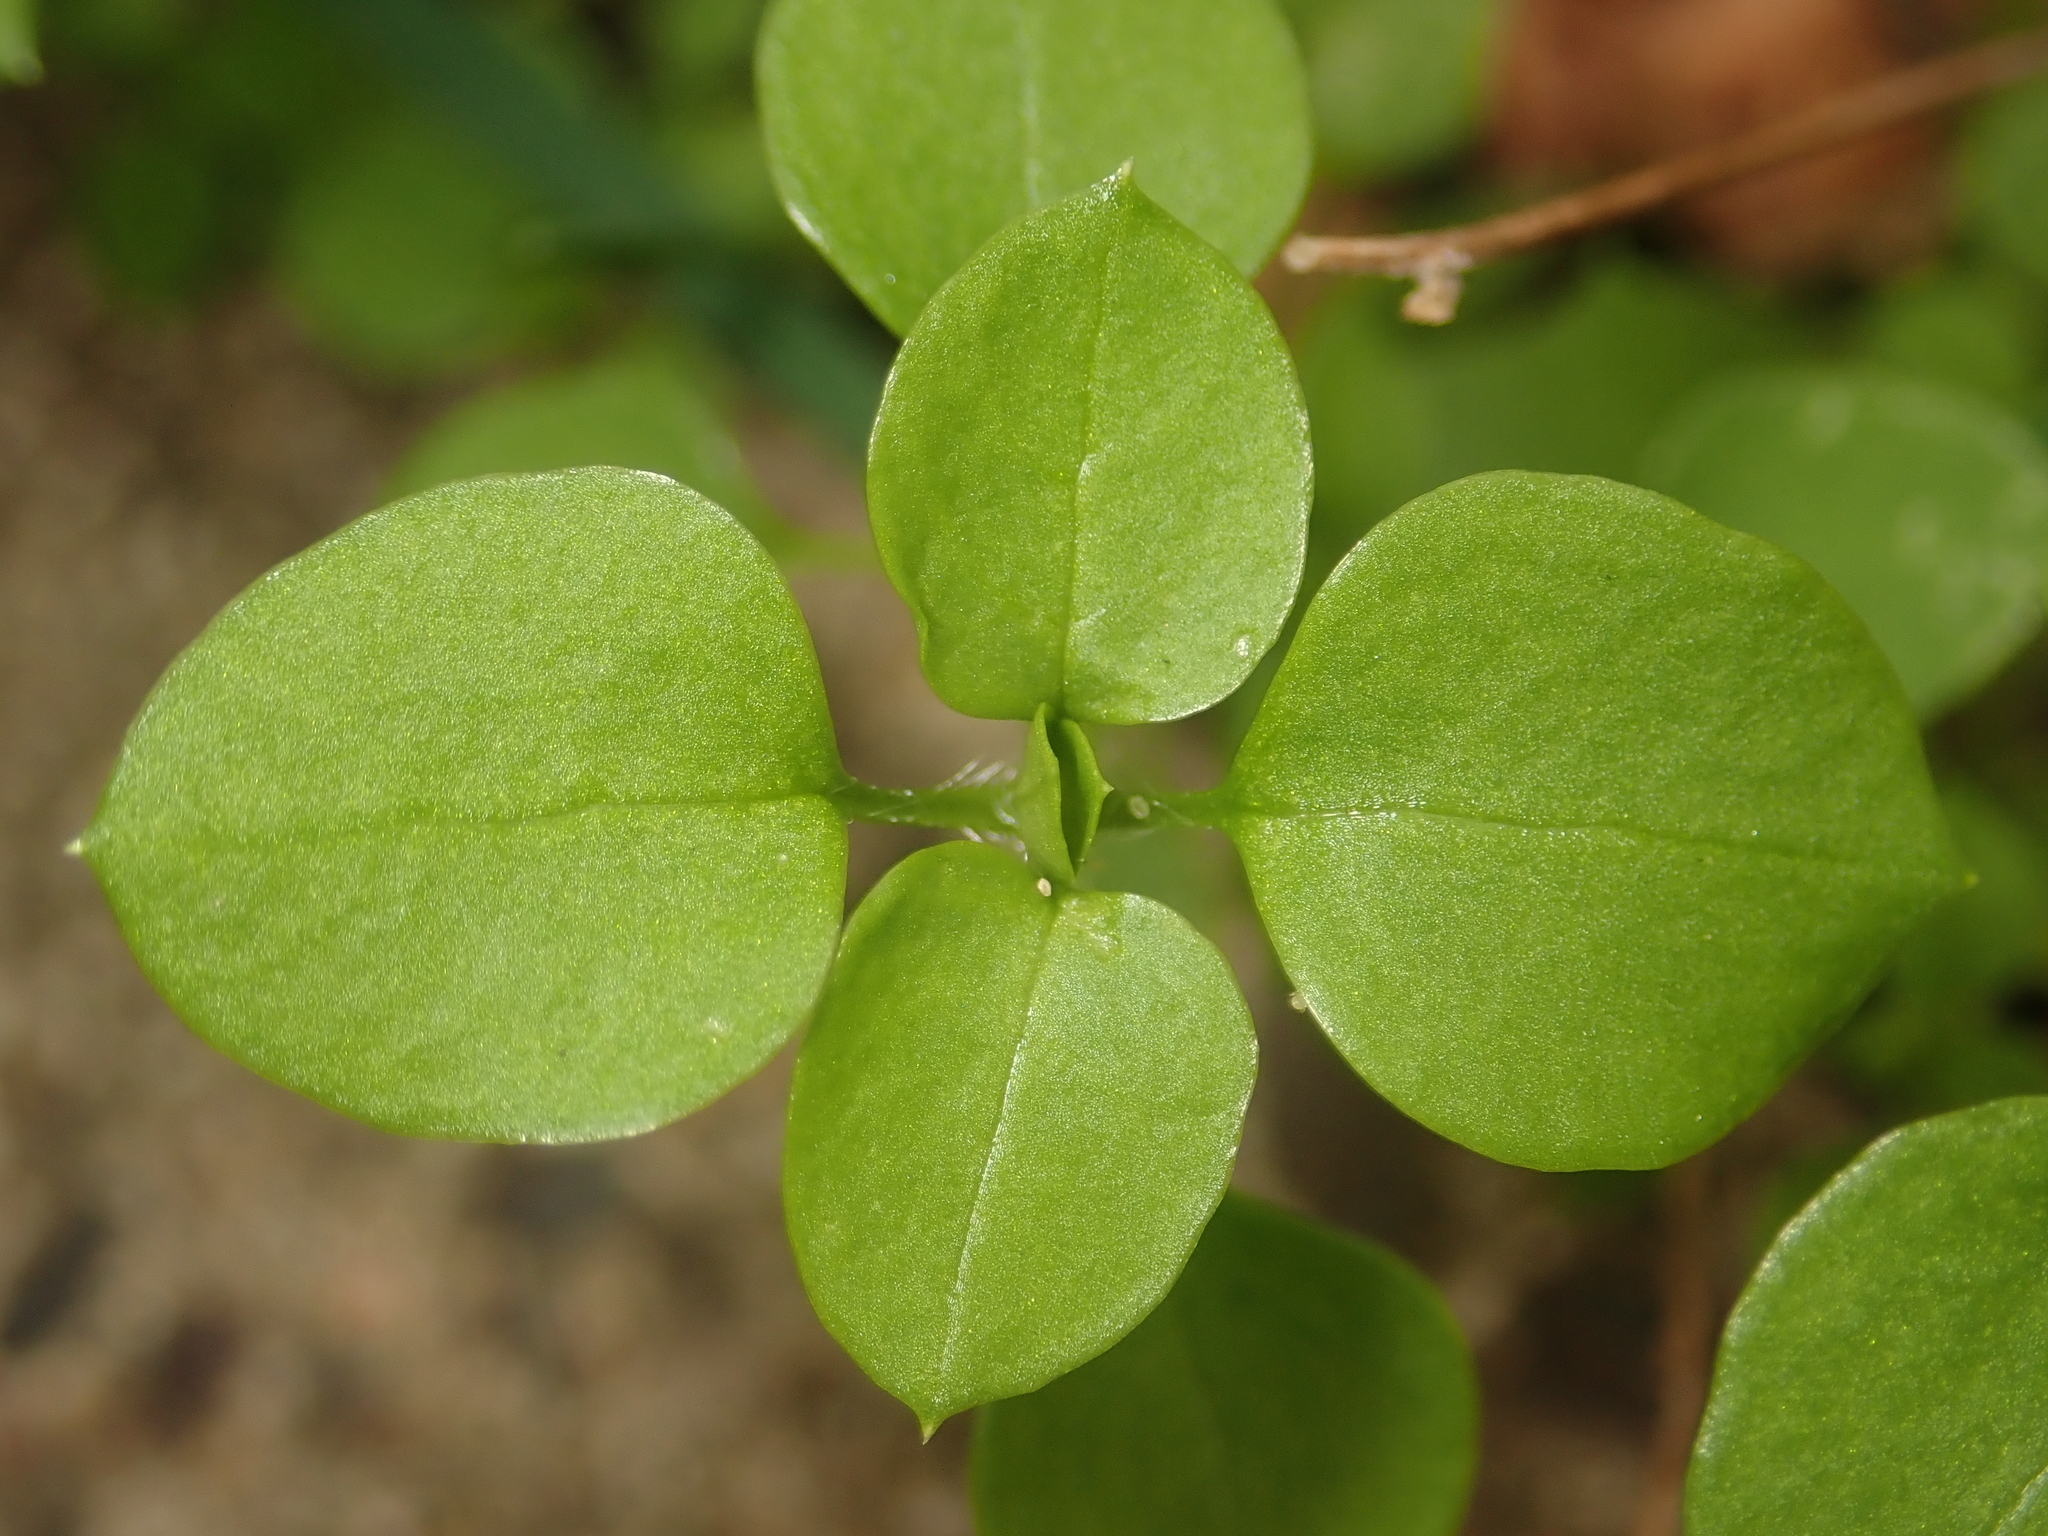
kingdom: Plantae
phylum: Tracheophyta
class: Magnoliopsida
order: Caryophyllales
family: Caryophyllaceae
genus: Stellaria
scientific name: Stellaria media
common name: Common chickweed
